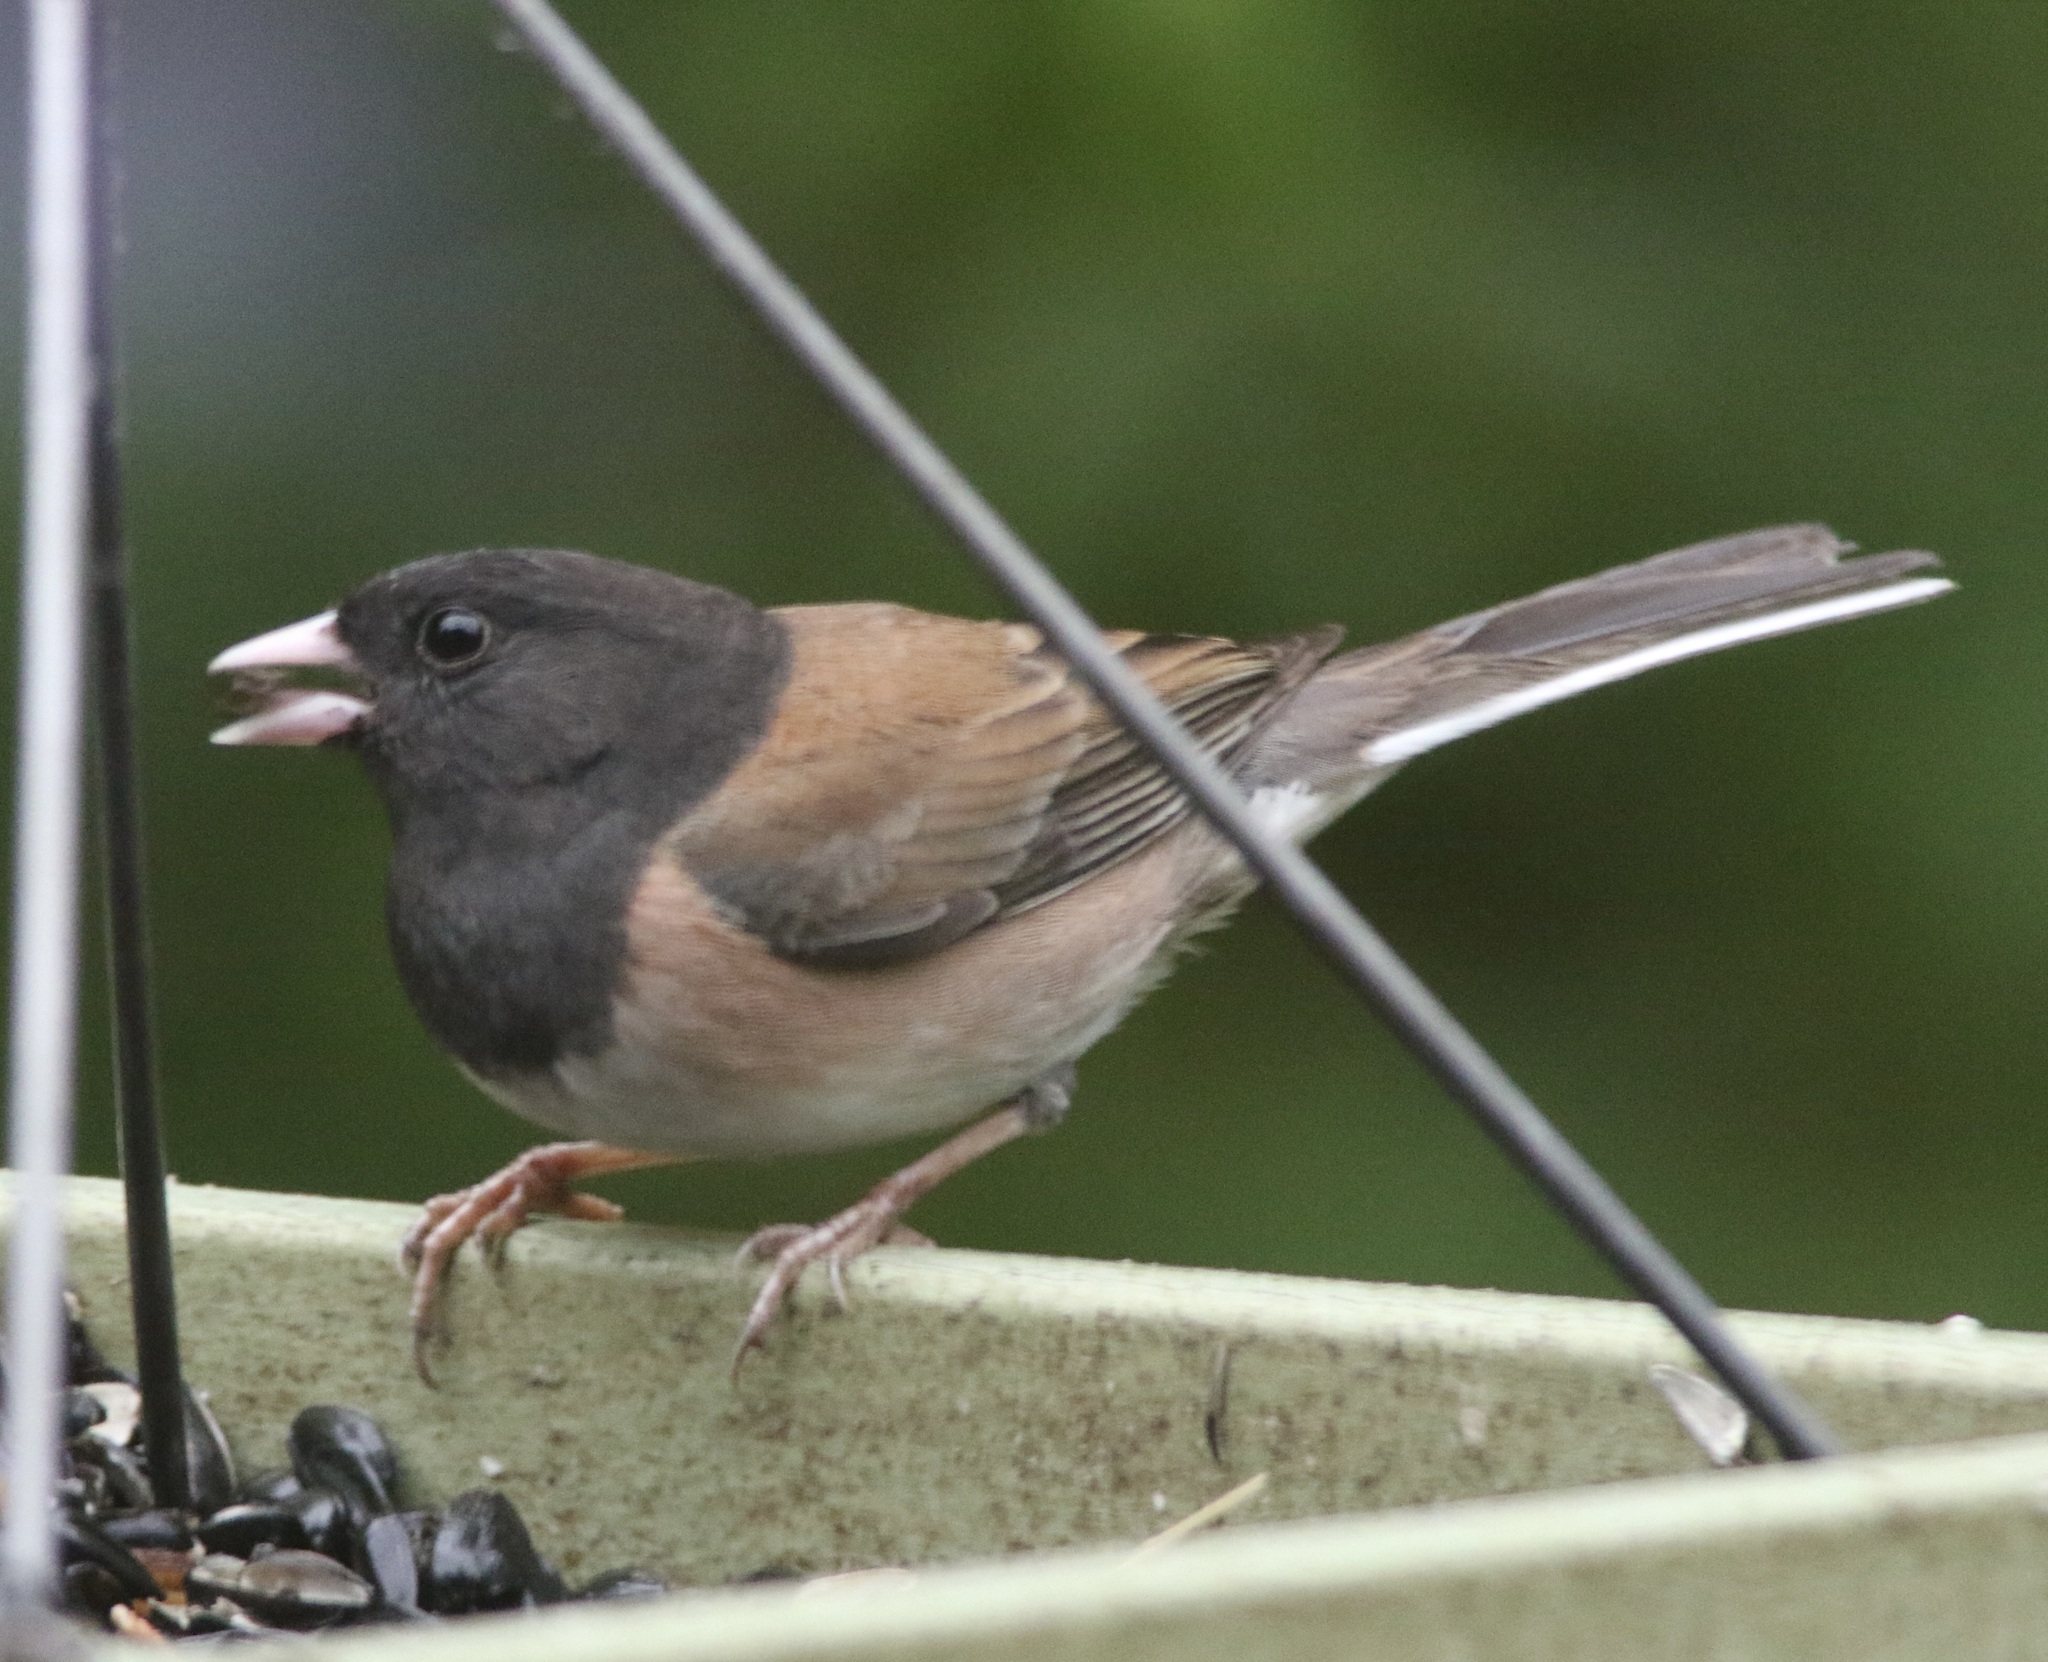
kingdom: Animalia
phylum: Chordata
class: Aves
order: Passeriformes
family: Passerellidae
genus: Junco
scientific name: Junco hyemalis
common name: Dark-eyed junco
